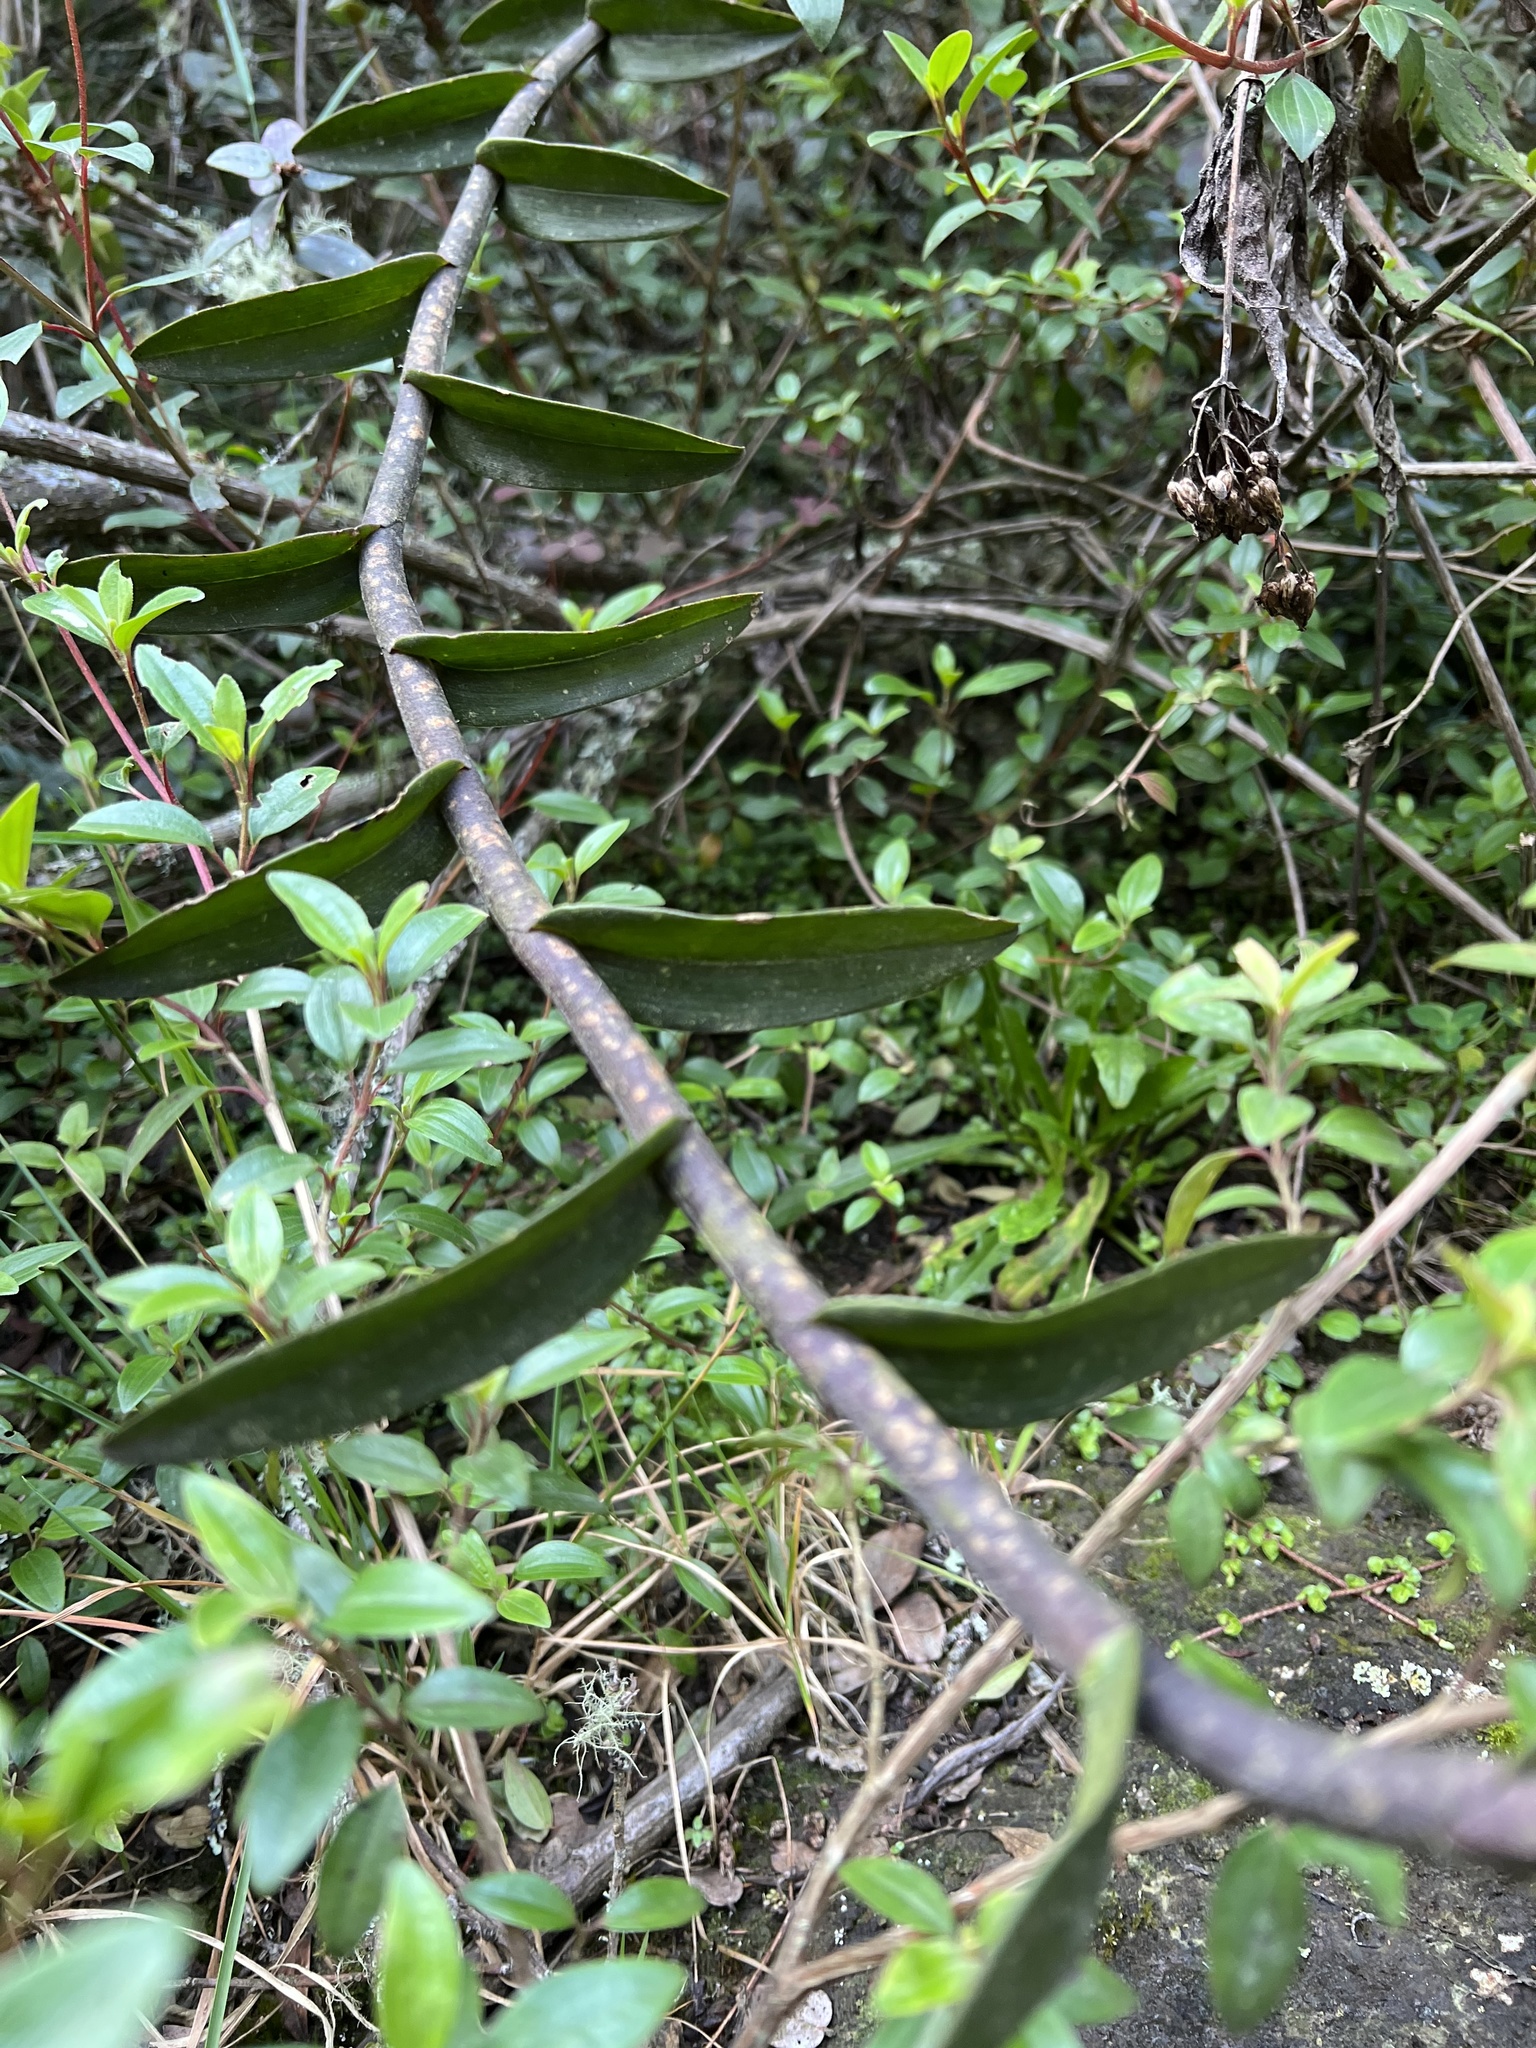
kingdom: Plantae
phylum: Tracheophyta
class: Liliopsida
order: Asparagales
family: Orchidaceae
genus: Epidendrum
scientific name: Epidendrum scytocladium
